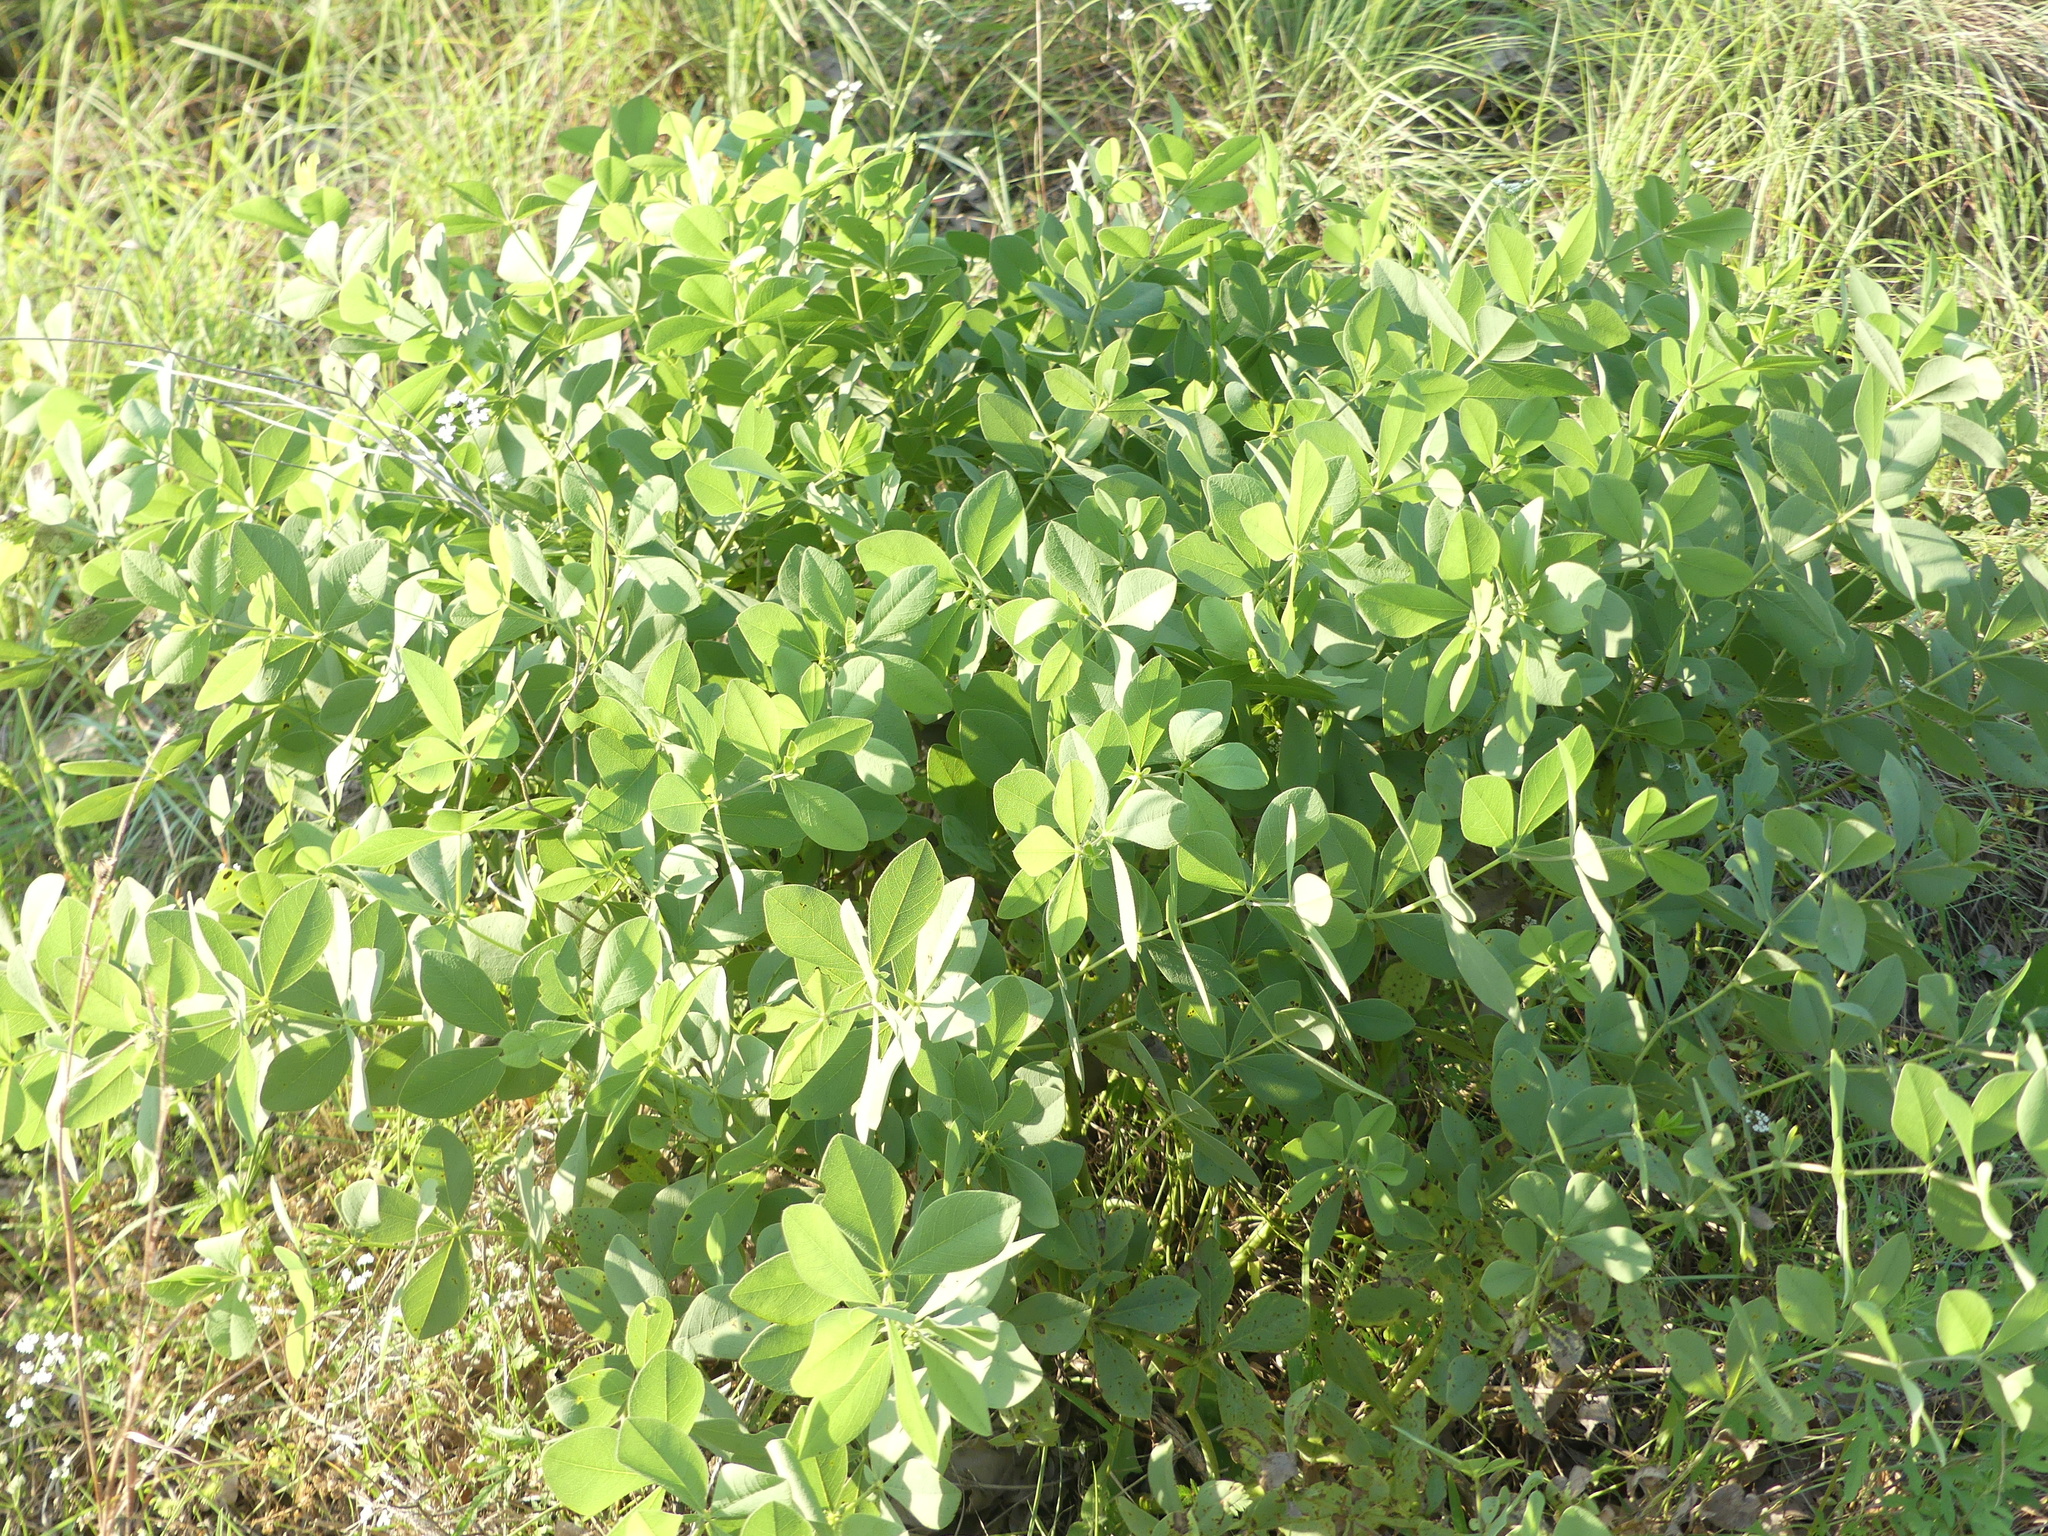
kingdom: Plantae
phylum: Tracheophyta
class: Magnoliopsida
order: Fabales
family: Fabaceae
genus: Baptisia
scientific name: Baptisia bracteata
